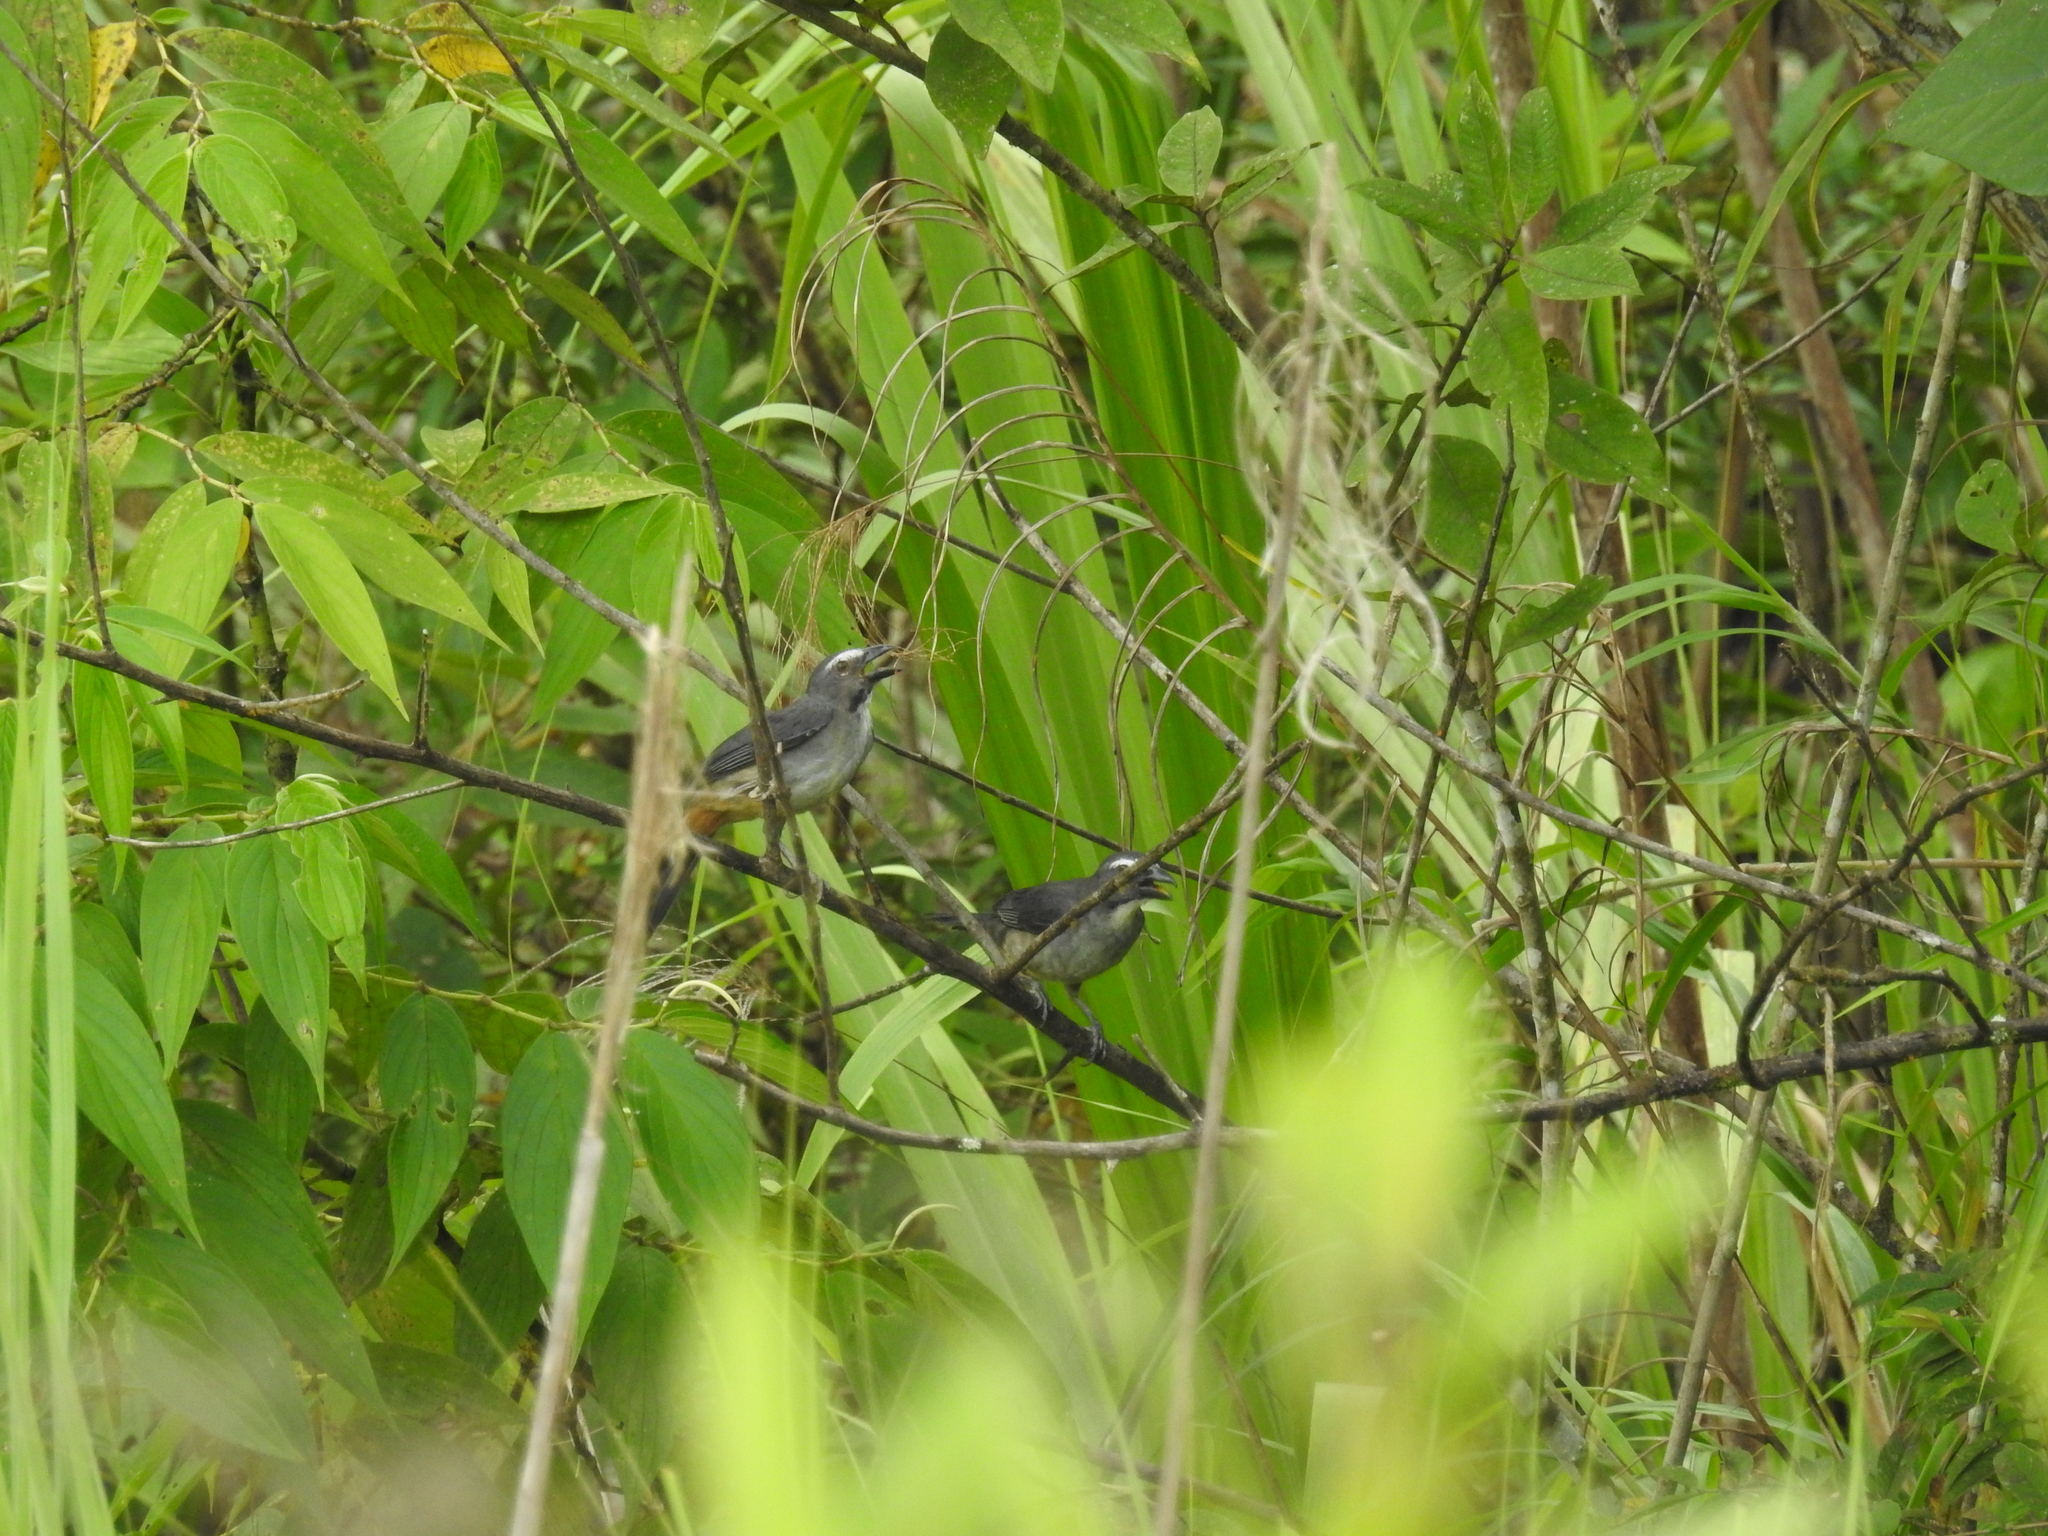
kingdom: Animalia
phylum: Chordata
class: Aves
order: Passeriformes
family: Thraupidae
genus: Saltator
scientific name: Saltator coerulescens
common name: Grayish saltator
